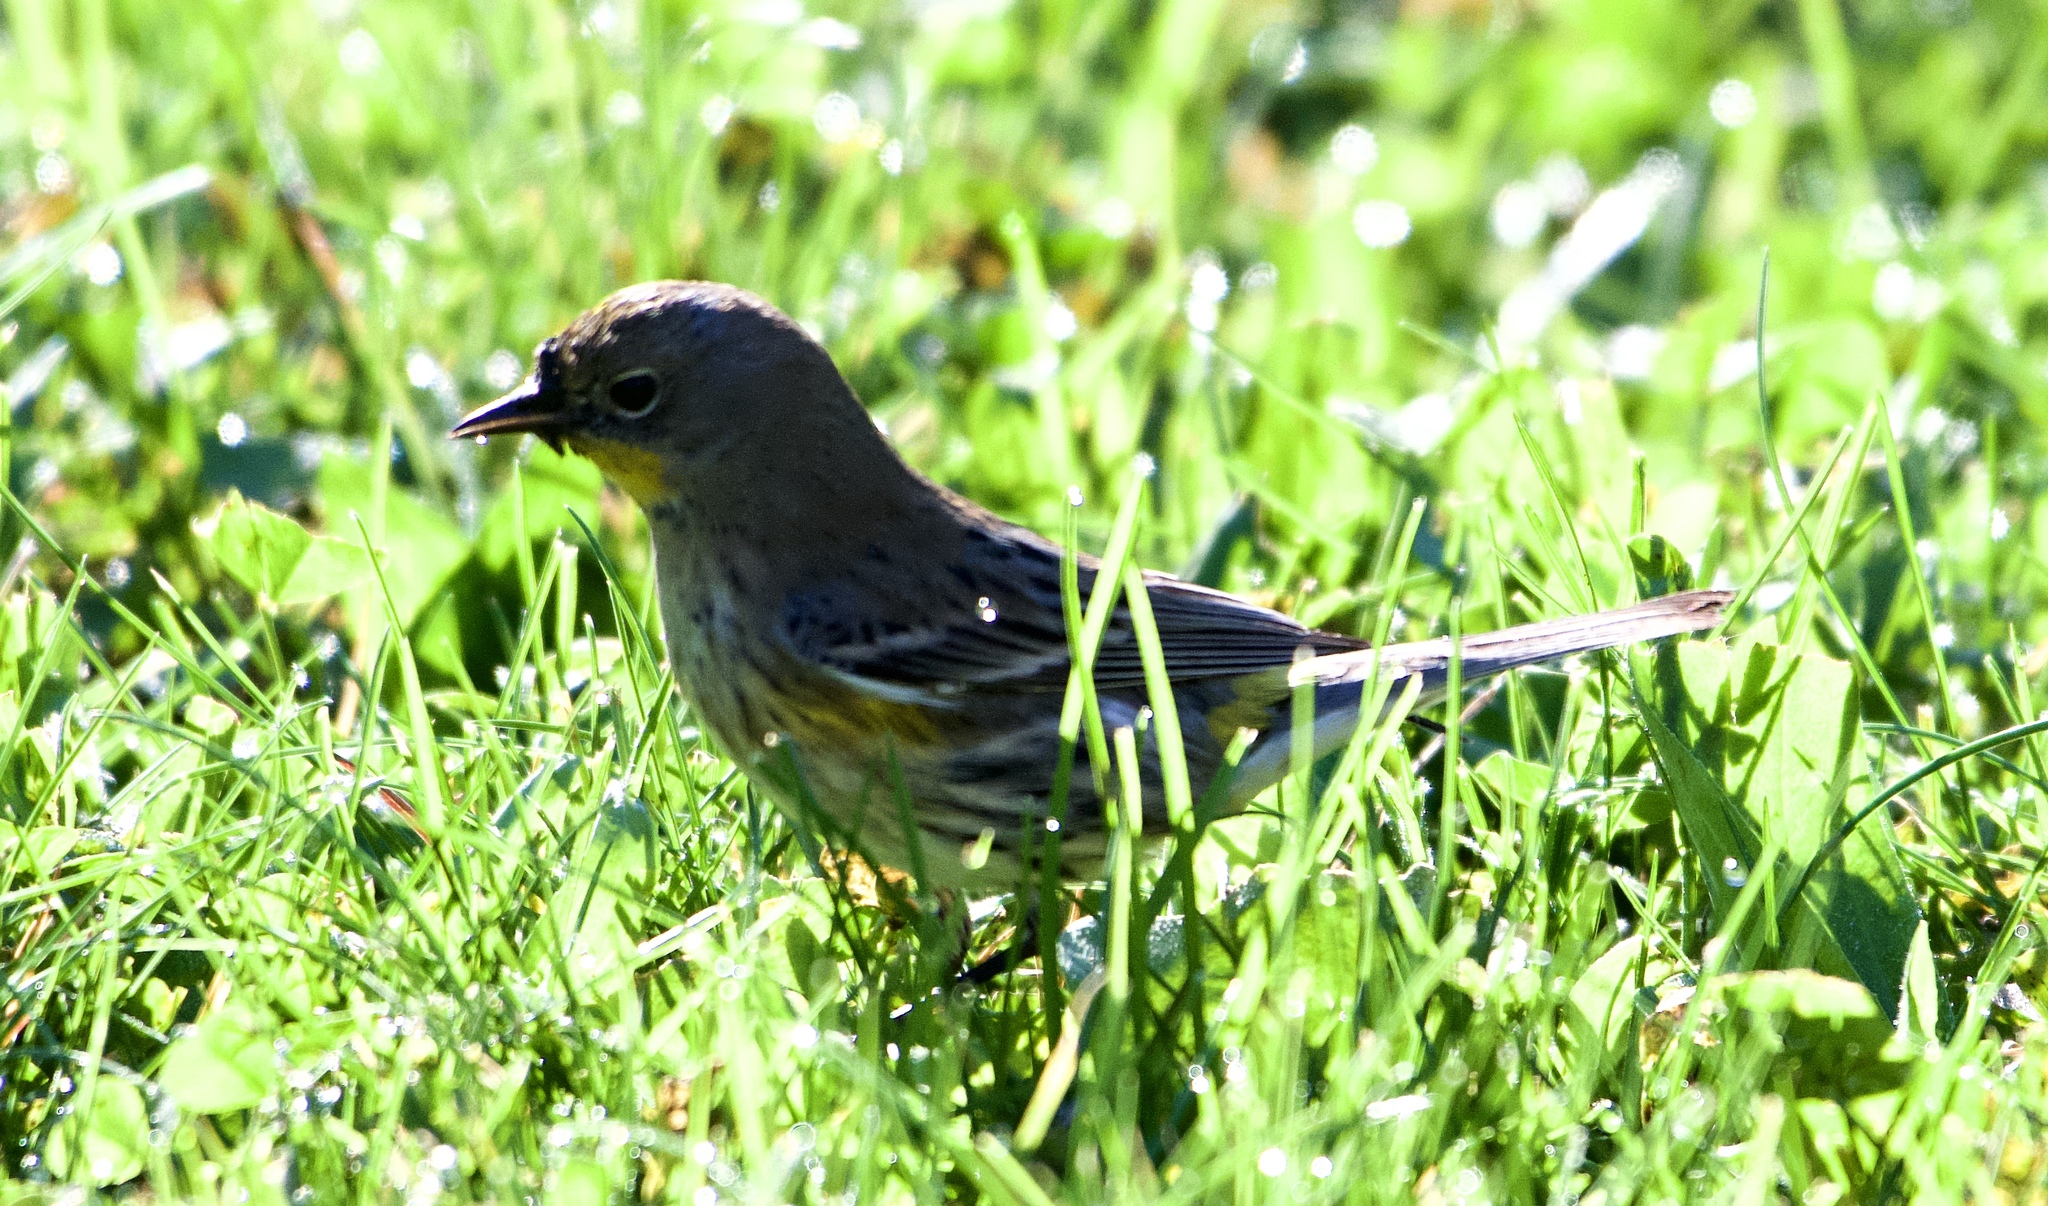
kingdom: Animalia
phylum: Chordata
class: Aves
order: Passeriformes
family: Parulidae
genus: Setophaga
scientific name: Setophaga coronata
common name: Myrtle warbler
